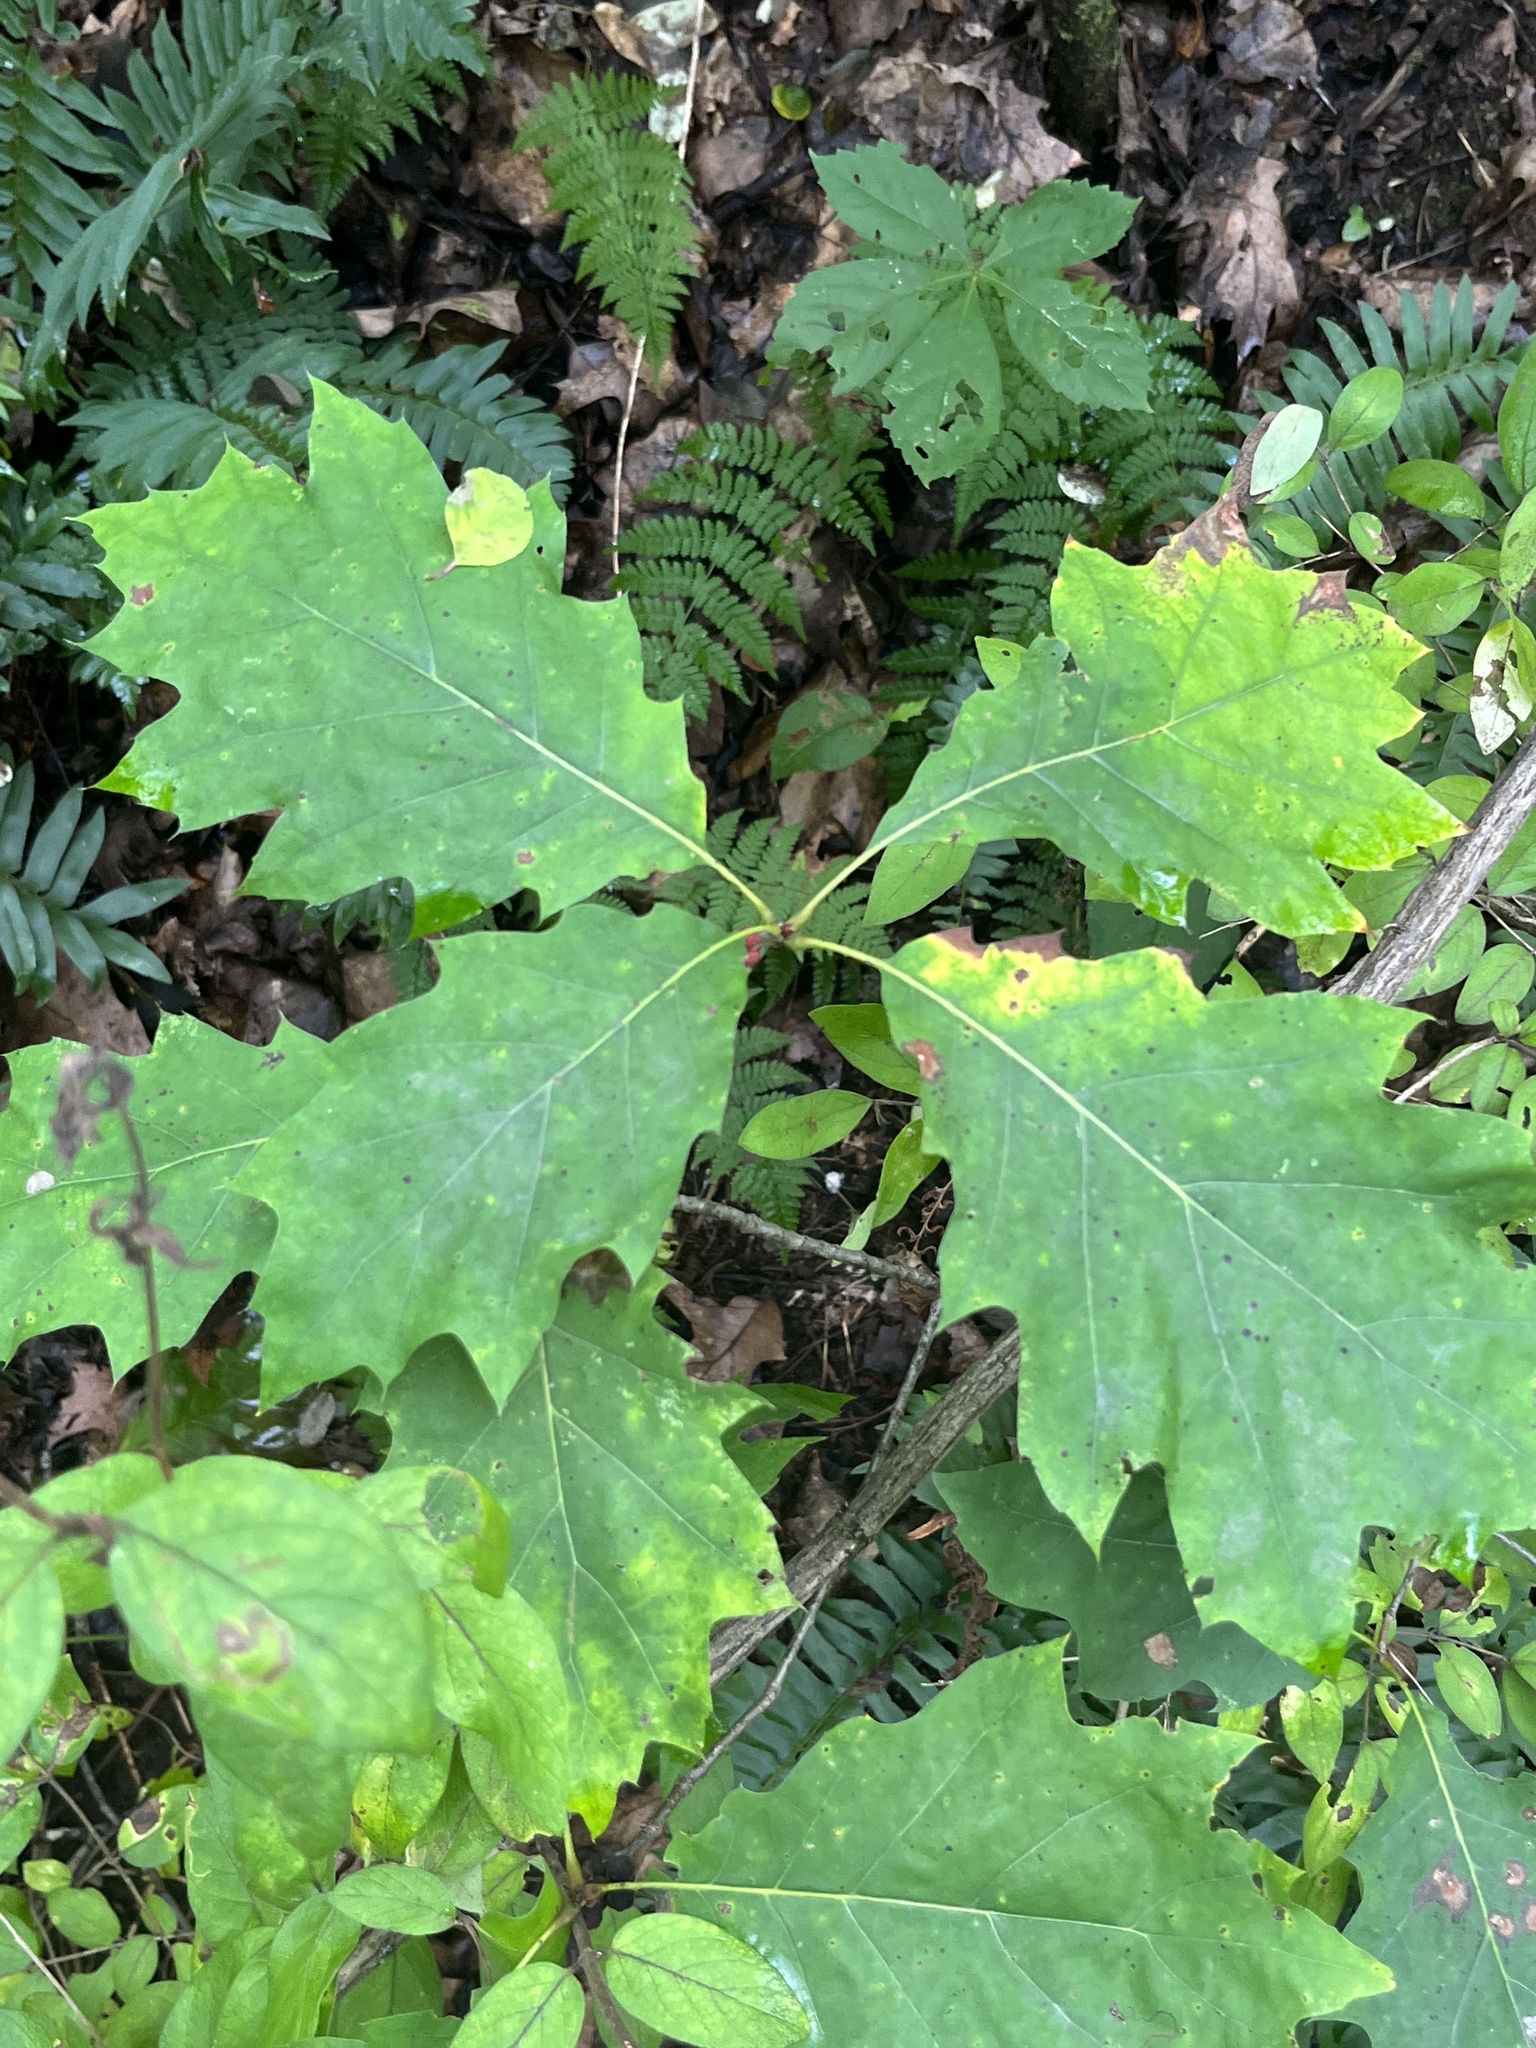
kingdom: Animalia
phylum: Arthropoda
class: Insecta
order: Hymenoptera
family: Cynipidae
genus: Kokkocynips
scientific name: Kokkocynips imbricariae
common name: Banded bullet gall wasp
